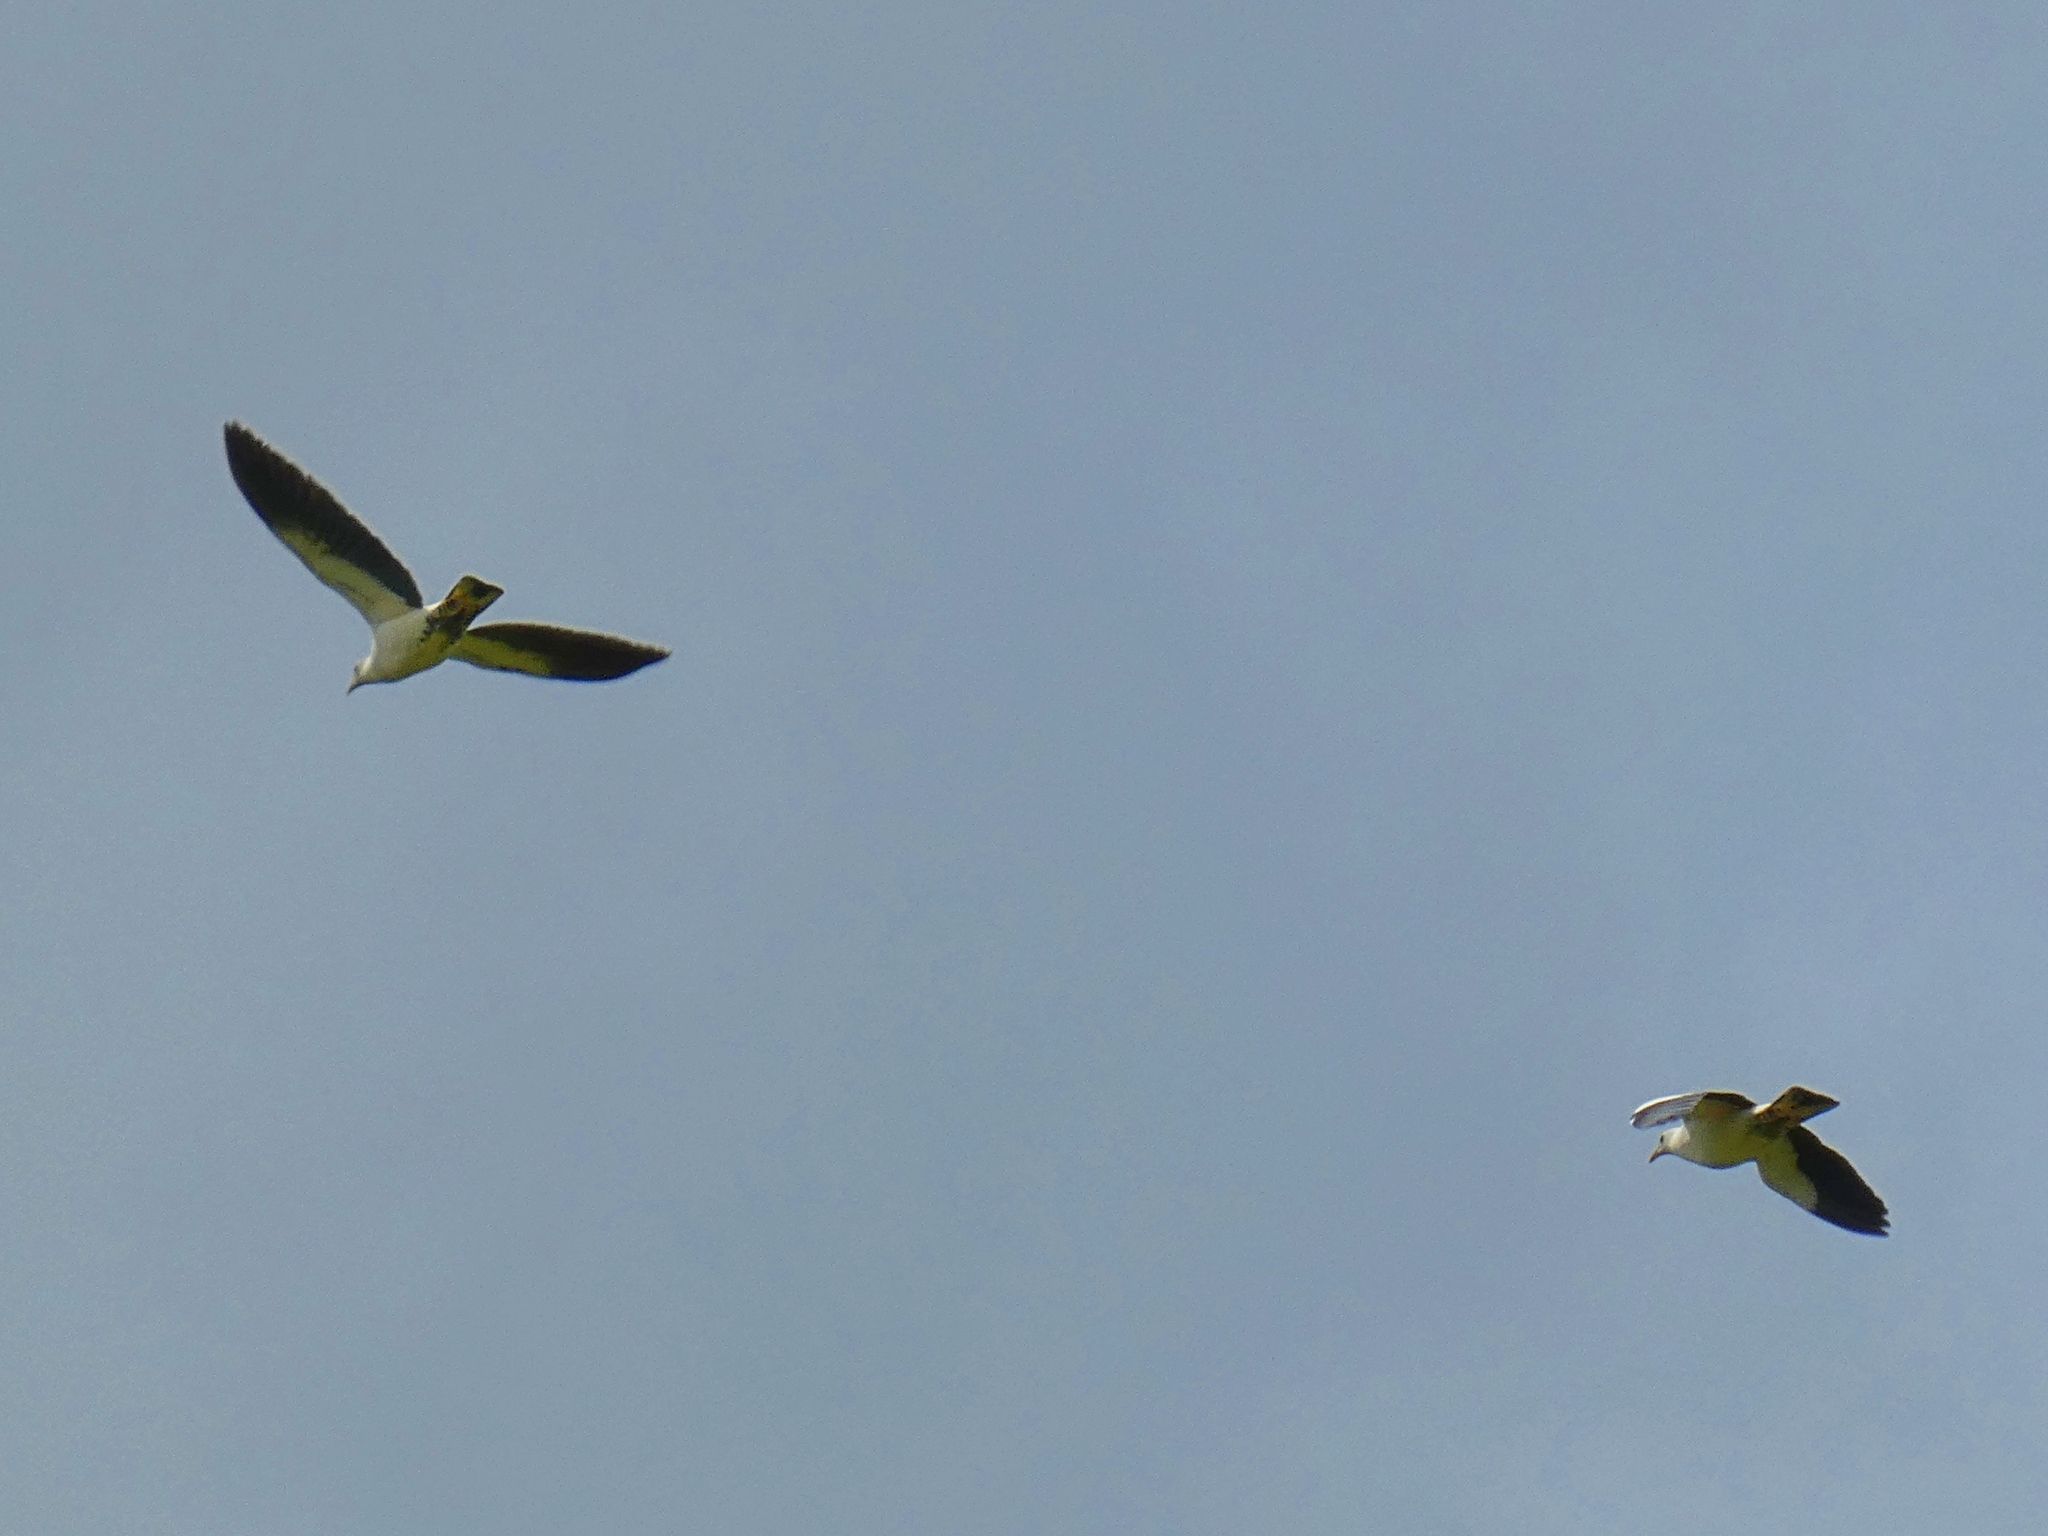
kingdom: Animalia
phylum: Chordata
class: Aves
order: Columbiformes
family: Columbidae
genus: Ducula
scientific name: Ducula spilorrhoa
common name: Torresian imperial pigeon
